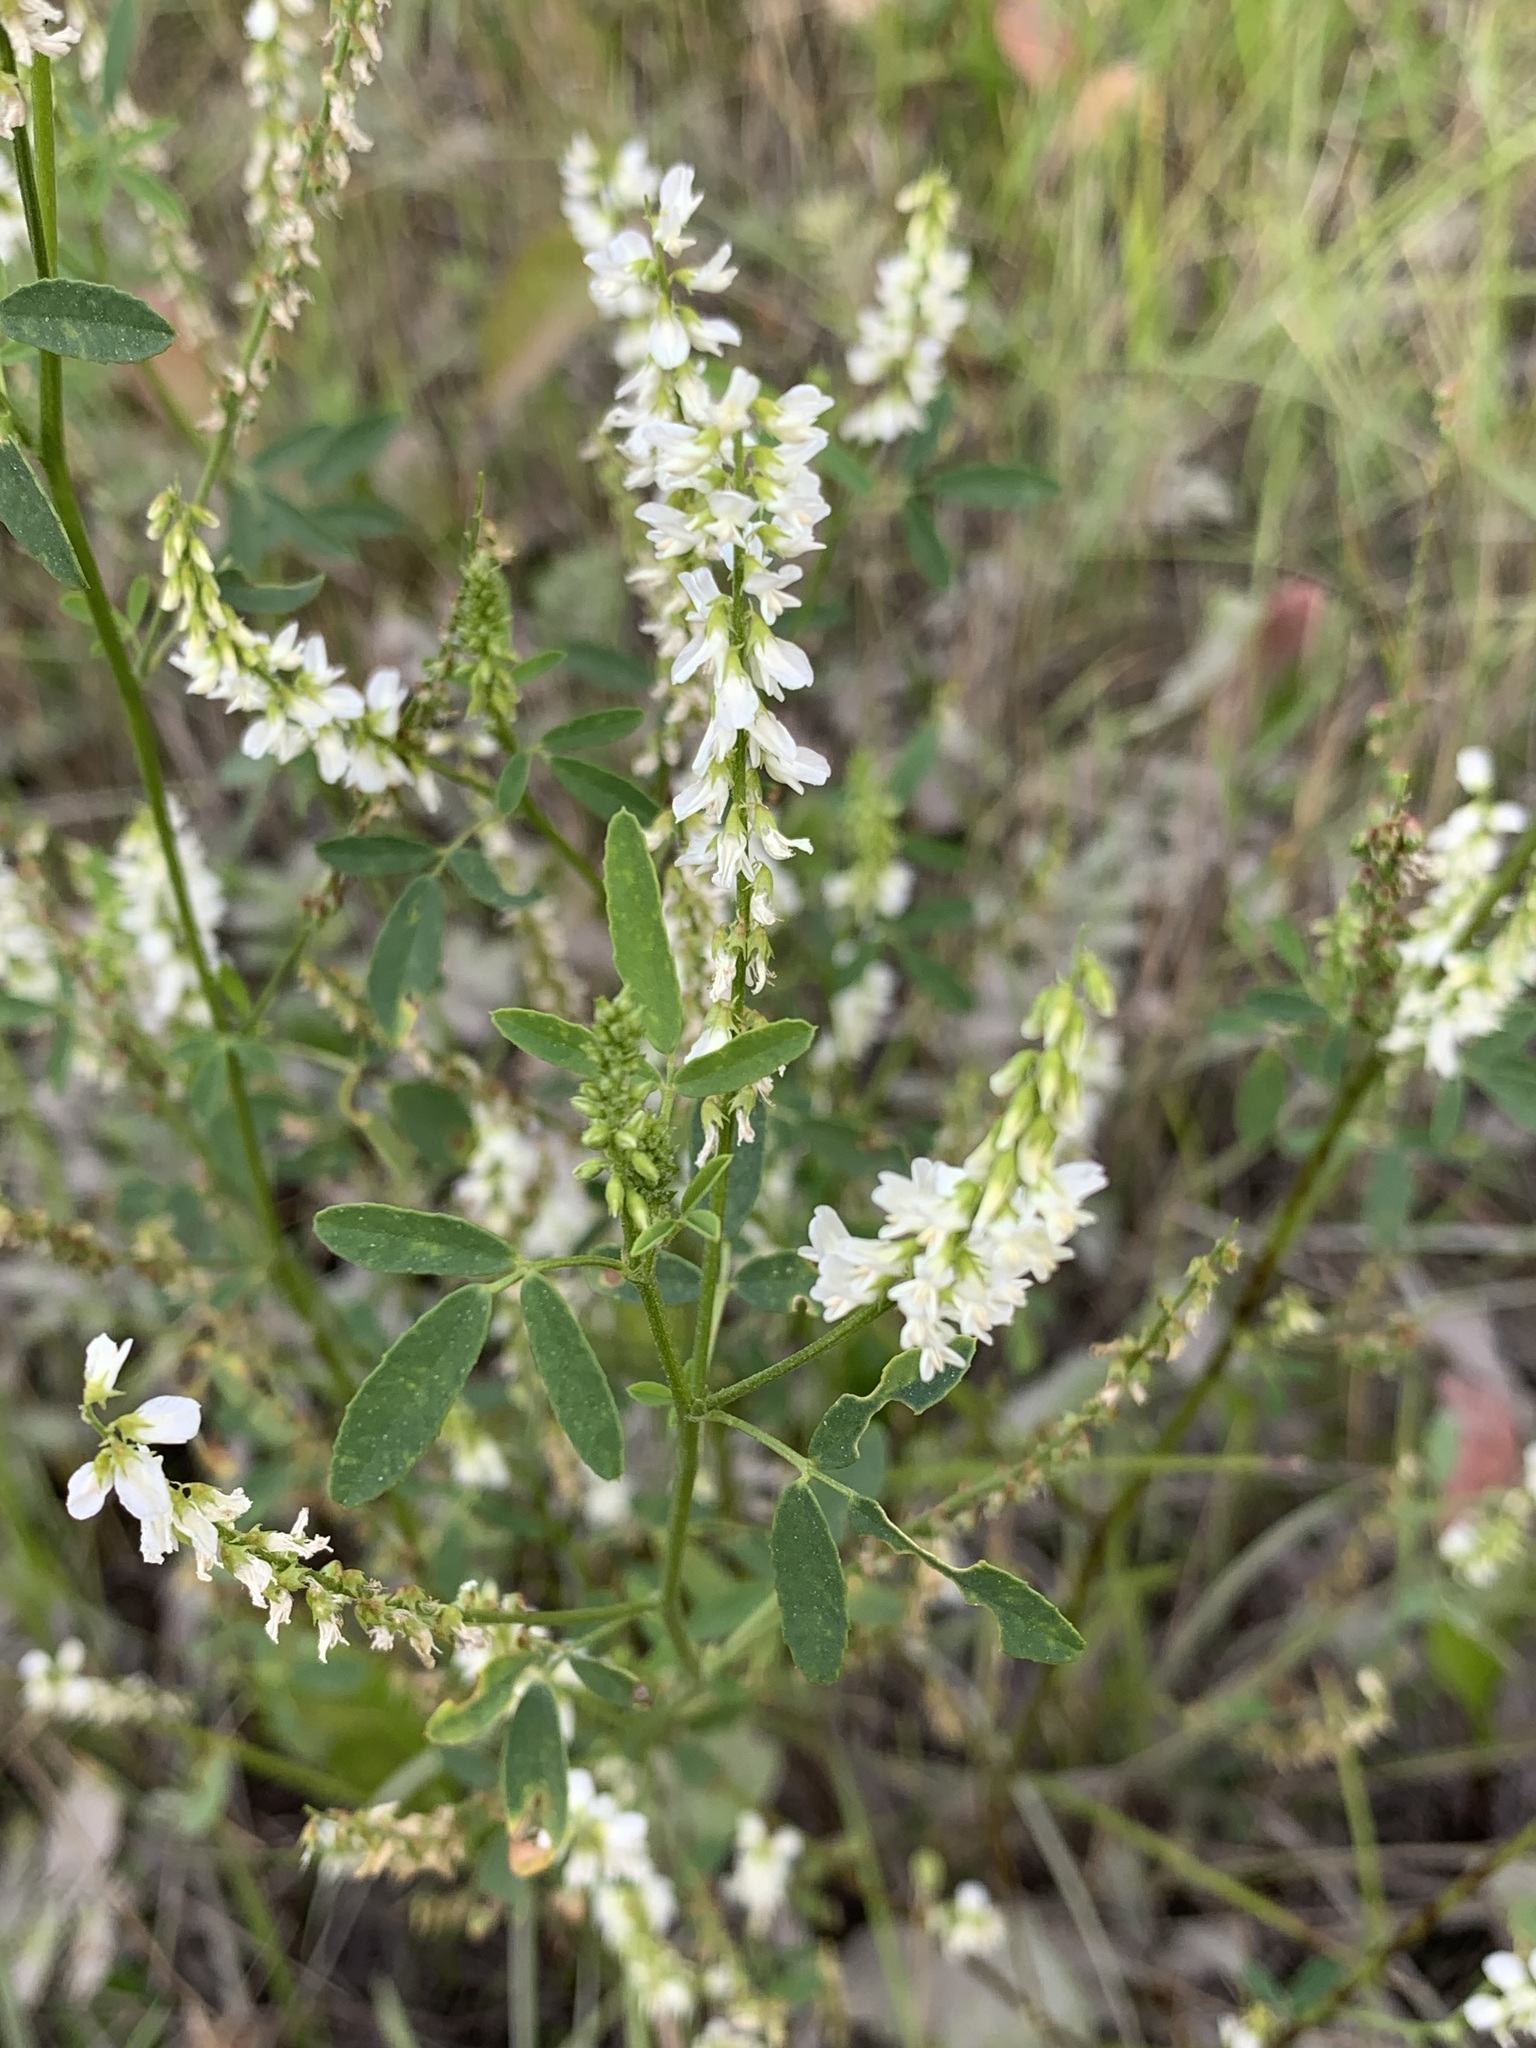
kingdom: Plantae
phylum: Tracheophyta
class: Magnoliopsida
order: Fabales
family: Fabaceae
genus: Melilotus
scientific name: Melilotus albus
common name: White melilot
